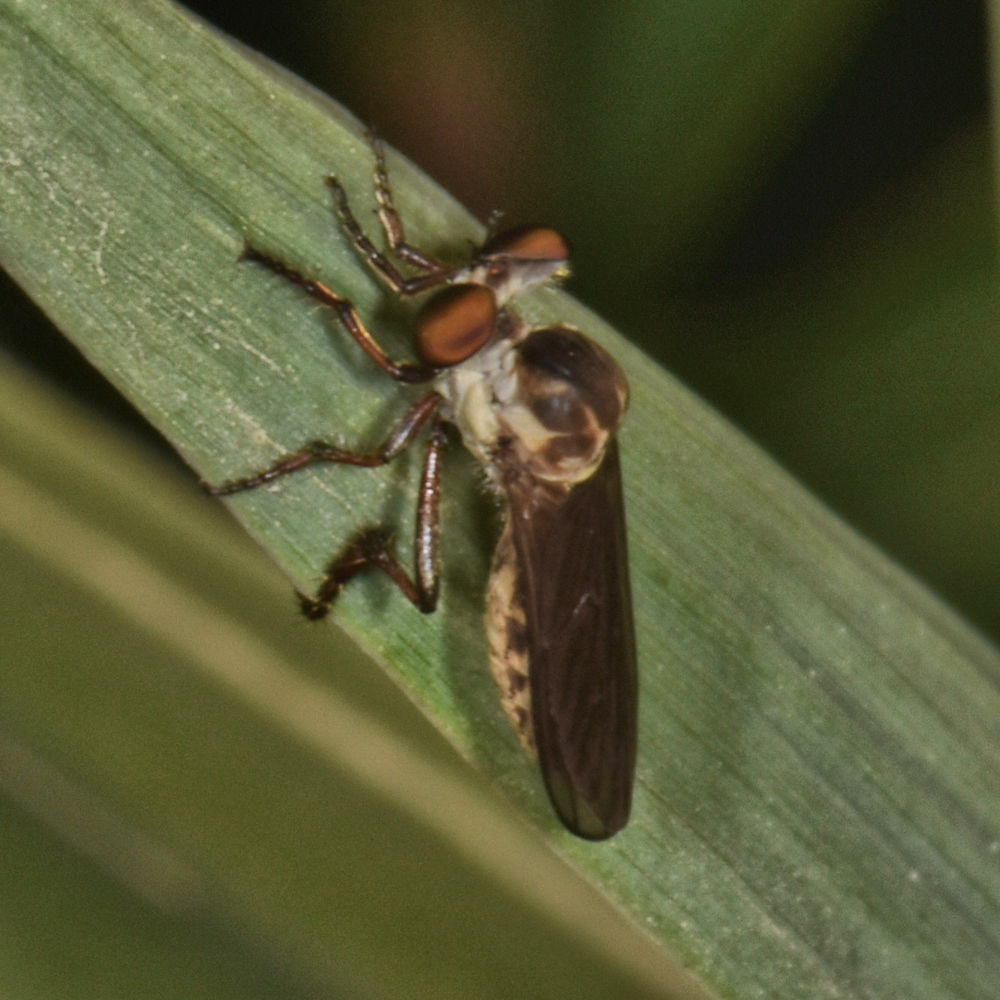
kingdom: Animalia
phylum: Arthropoda
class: Insecta
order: Diptera
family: Asilidae
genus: Holcocephala
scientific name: Holcocephala calva
